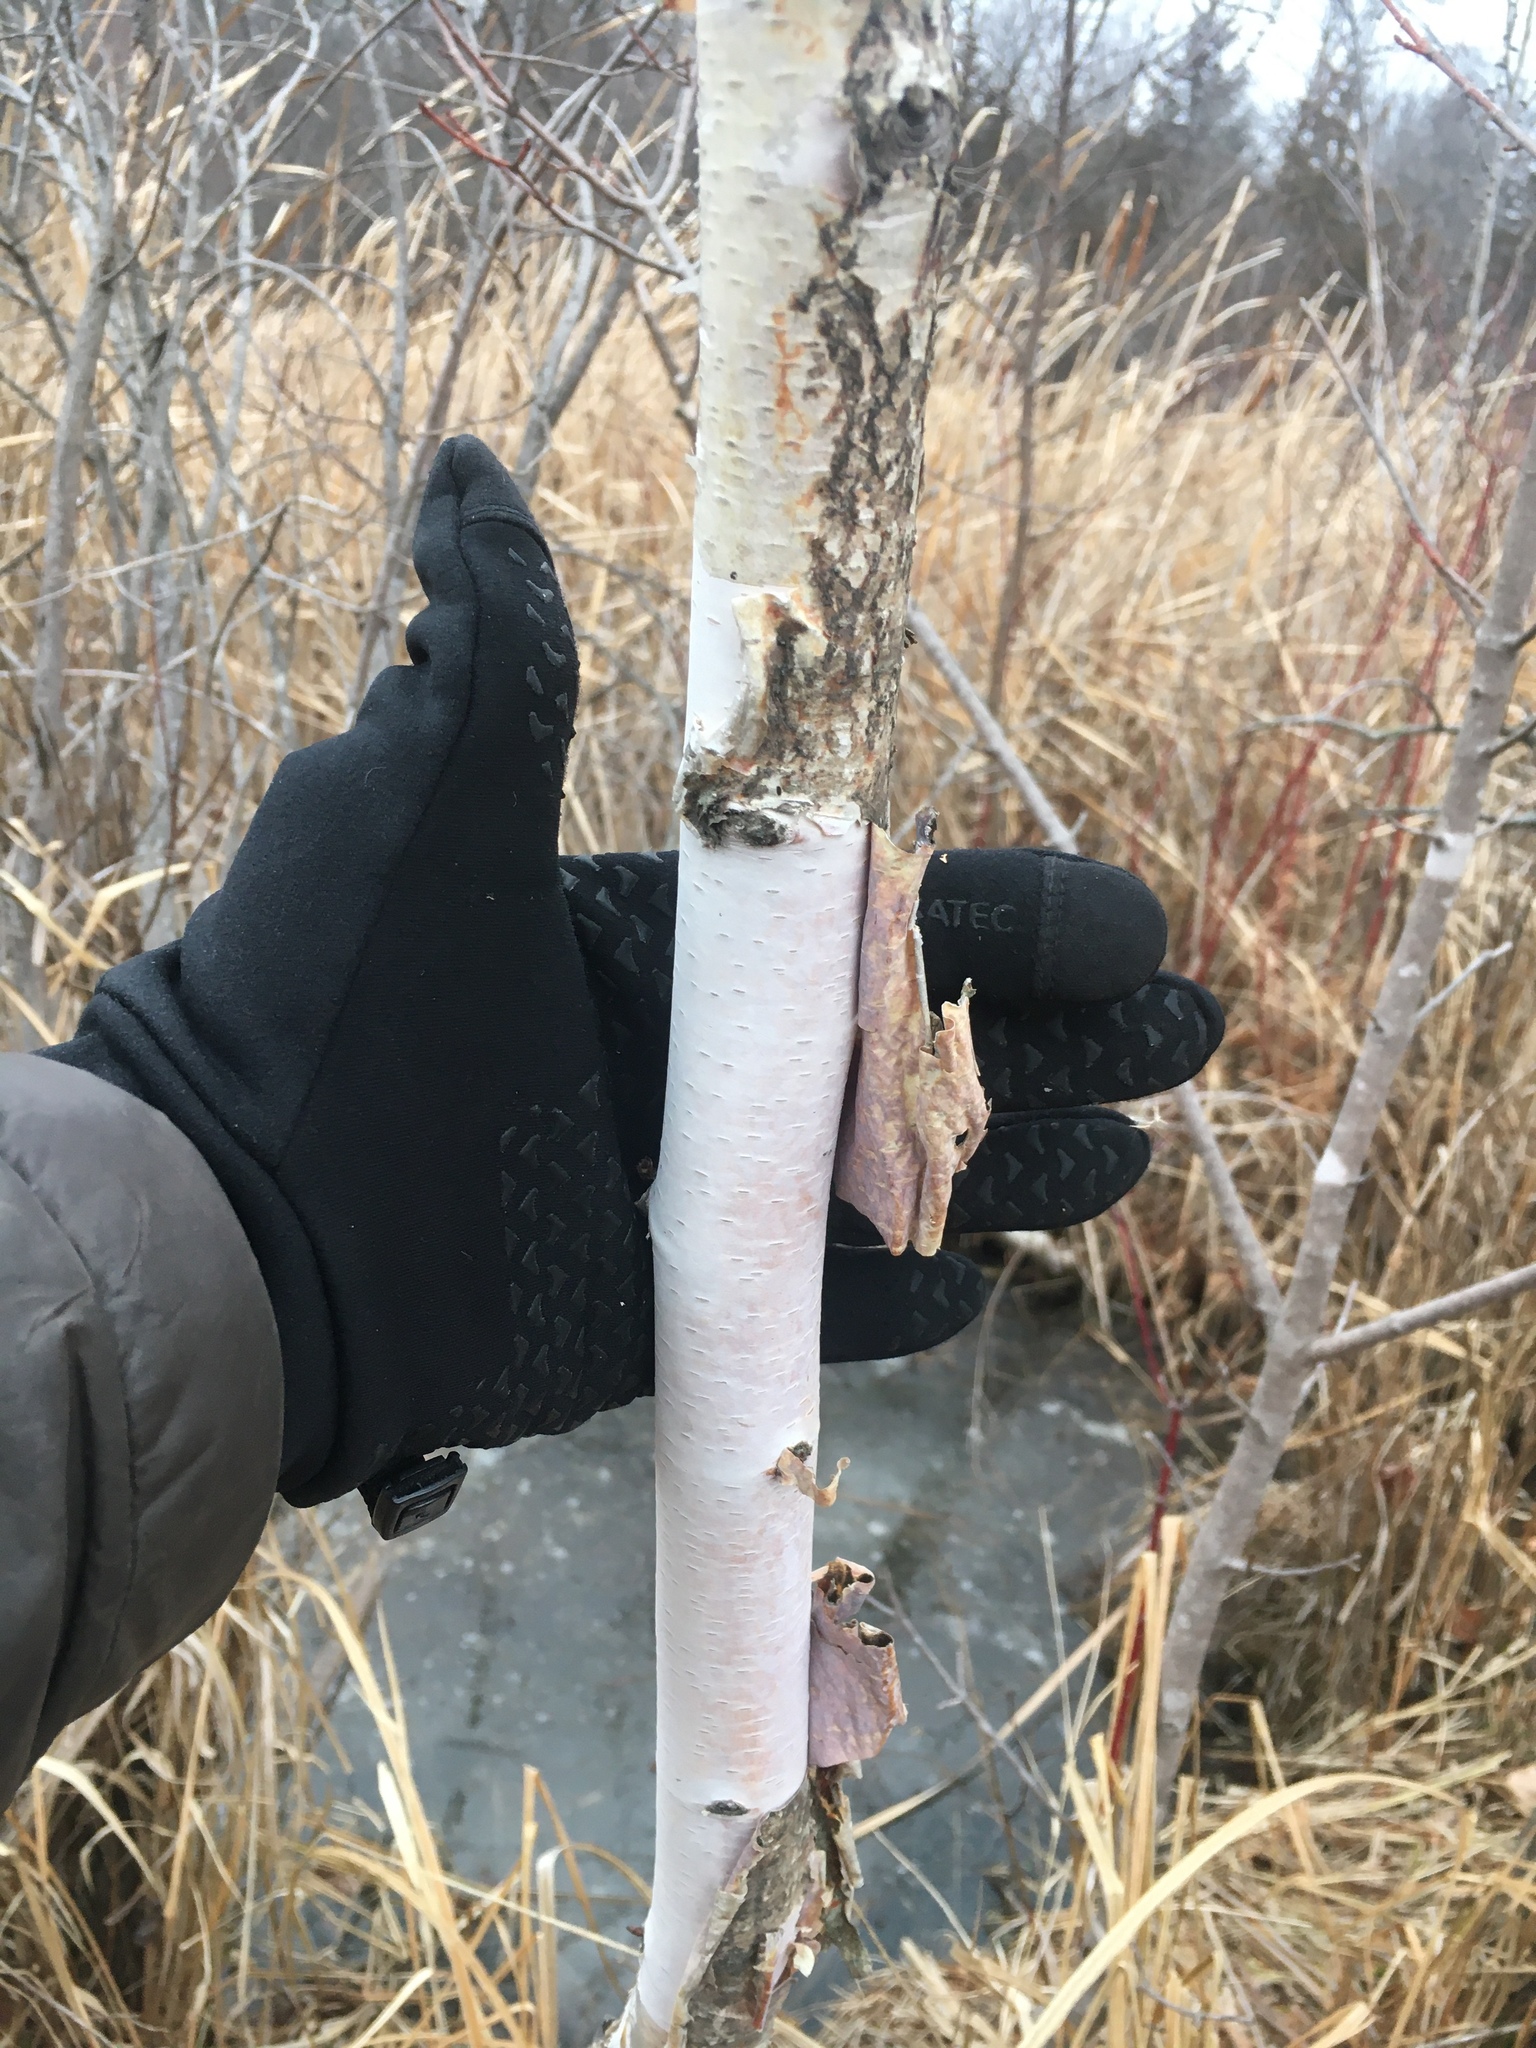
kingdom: Plantae
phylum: Tracheophyta
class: Magnoliopsida
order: Fagales
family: Betulaceae
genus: Betula
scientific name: Betula papyrifera
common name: Paper birch
